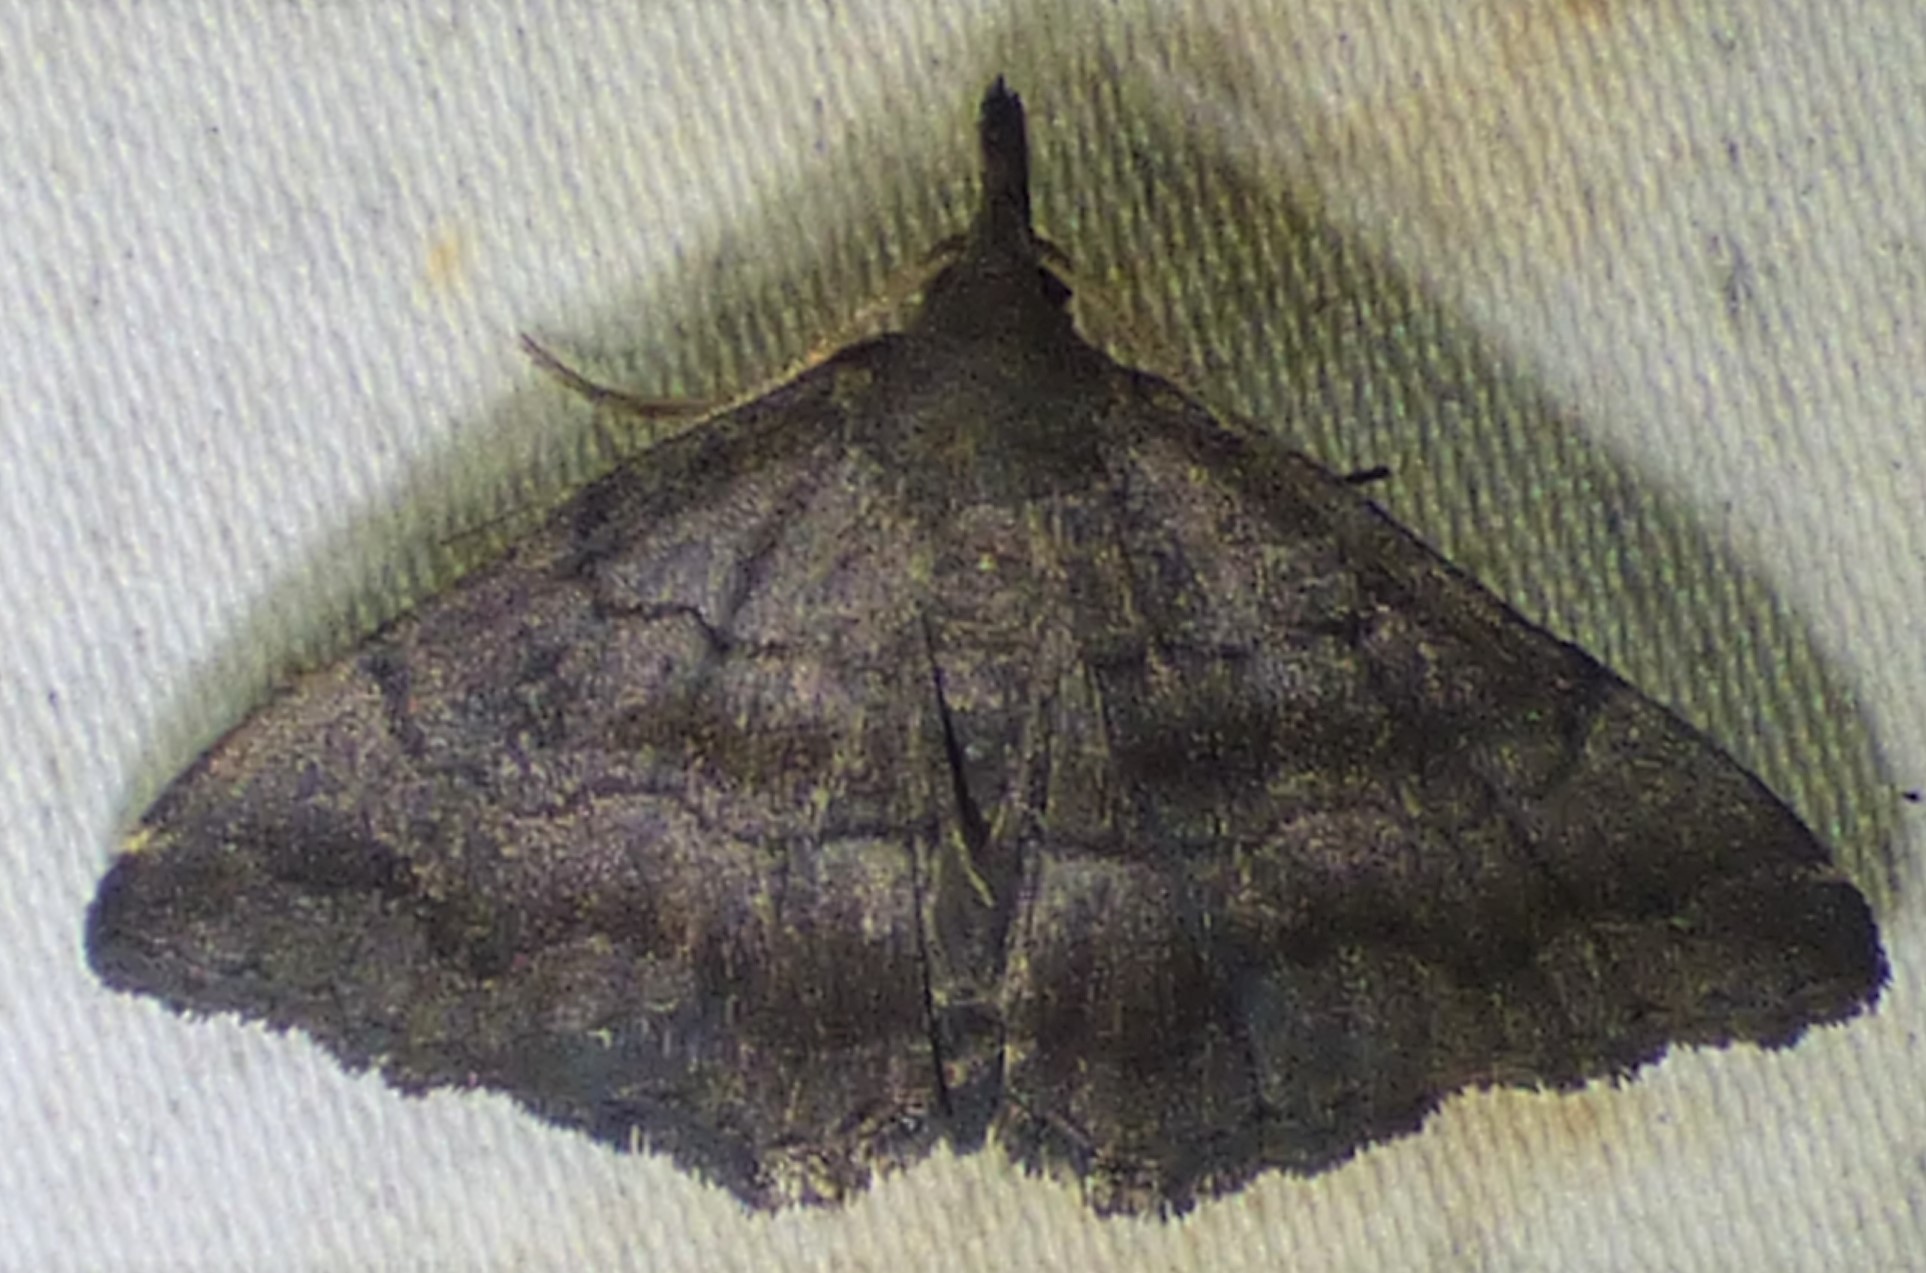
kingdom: Animalia
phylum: Arthropoda
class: Insecta
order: Lepidoptera
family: Erebidae
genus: Phalaenostola
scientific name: Phalaenostola larentioides
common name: Black-banded owlet
